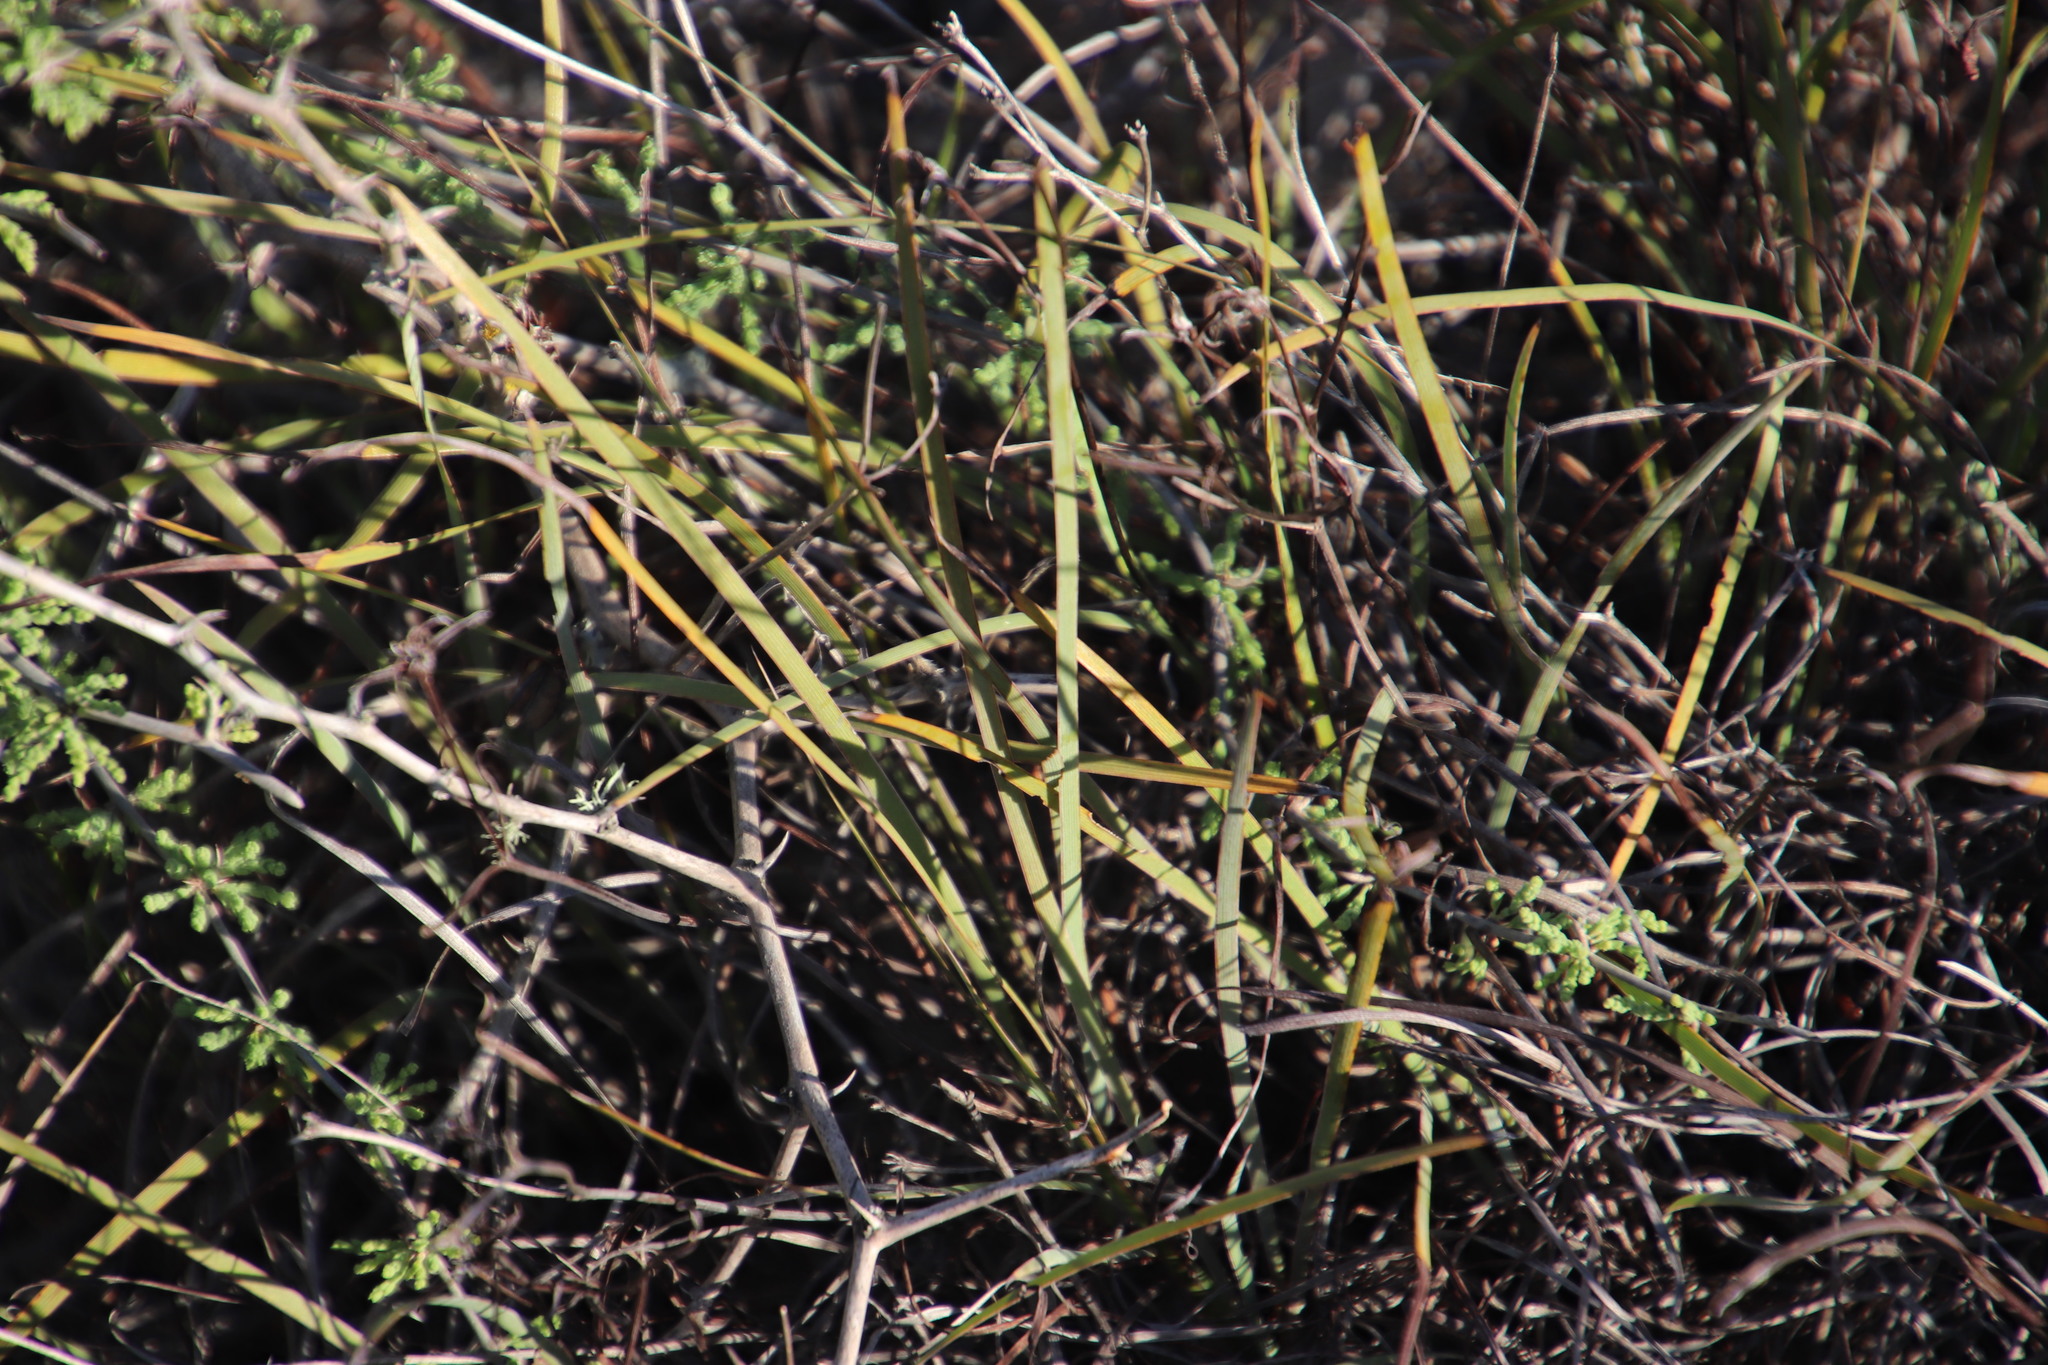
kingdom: Plantae
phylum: Tracheophyta
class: Liliopsida
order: Asparagales
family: Iridaceae
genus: Aristea
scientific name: Aristea dichotoma
